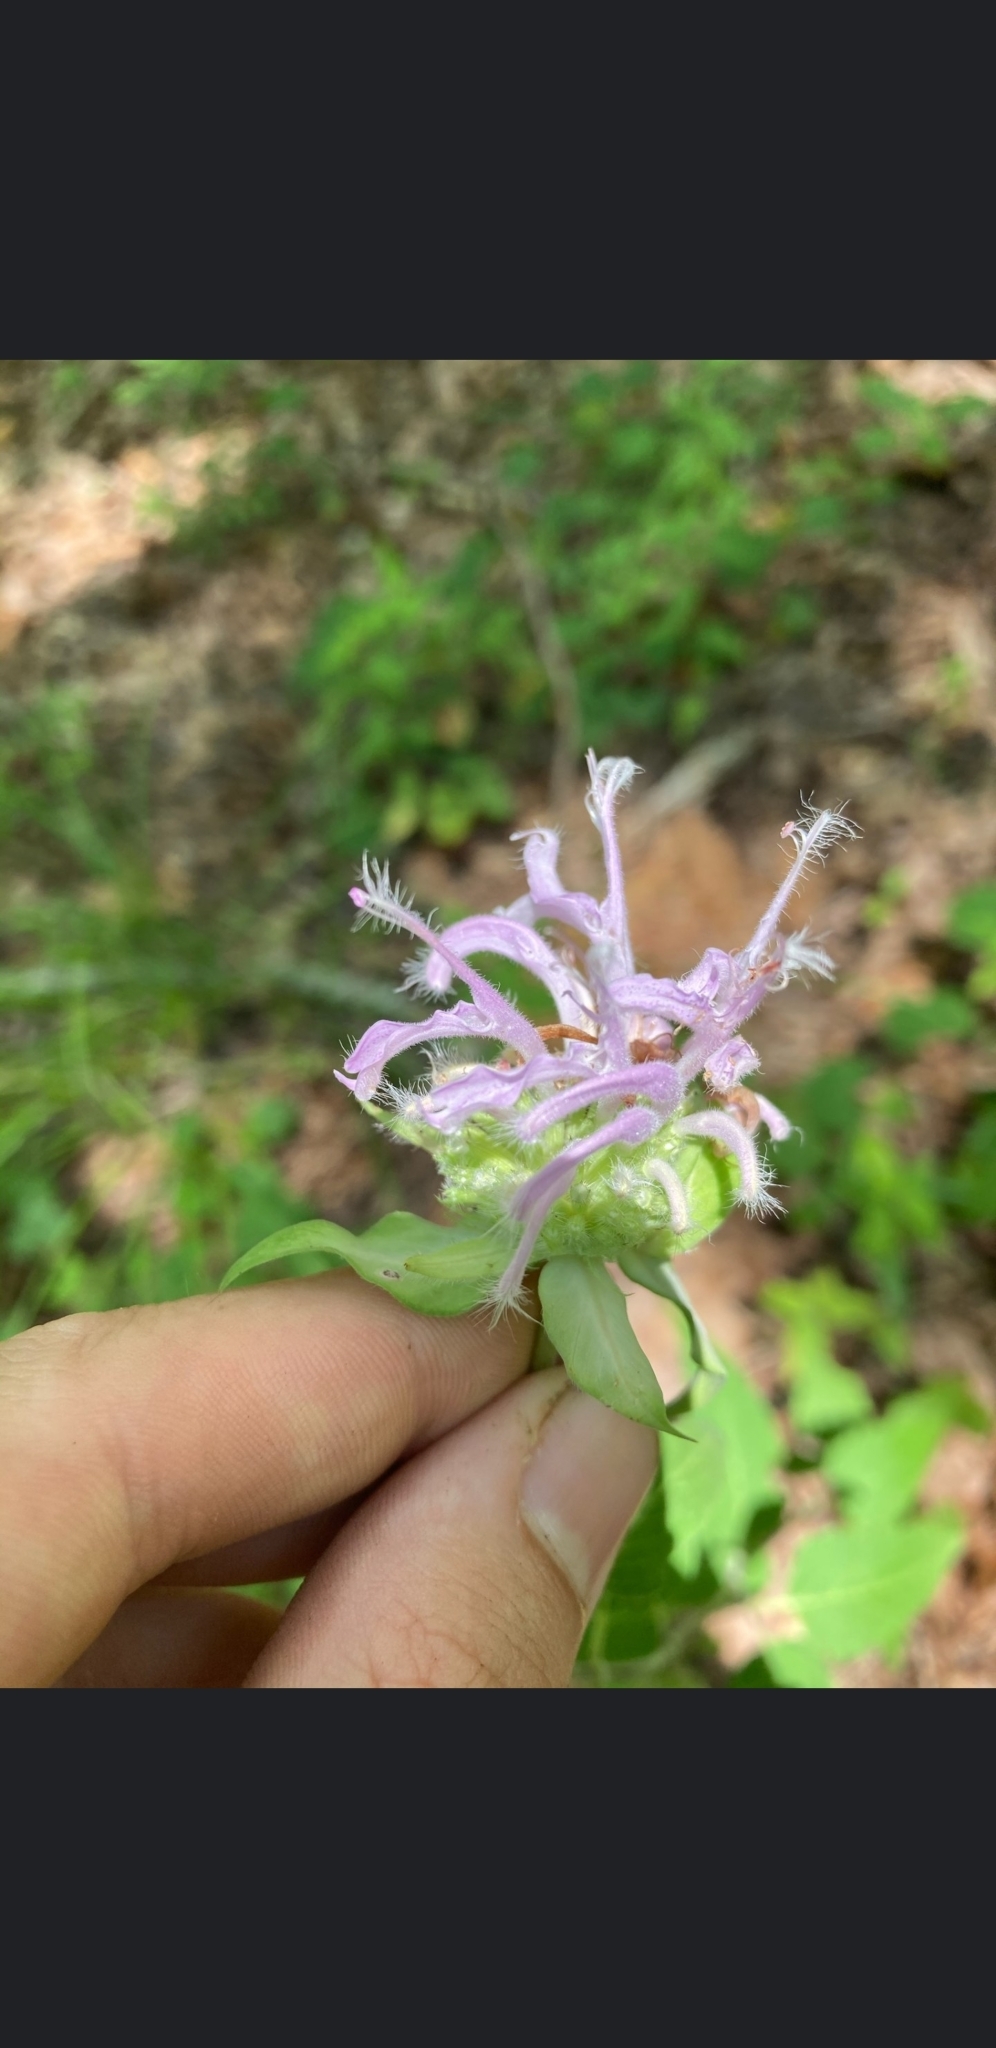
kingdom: Plantae
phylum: Tracheophyta
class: Magnoliopsida
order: Lamiales
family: Lamiaceae
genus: Monarda
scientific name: Monarda fistulosa
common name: Purple beebalm
